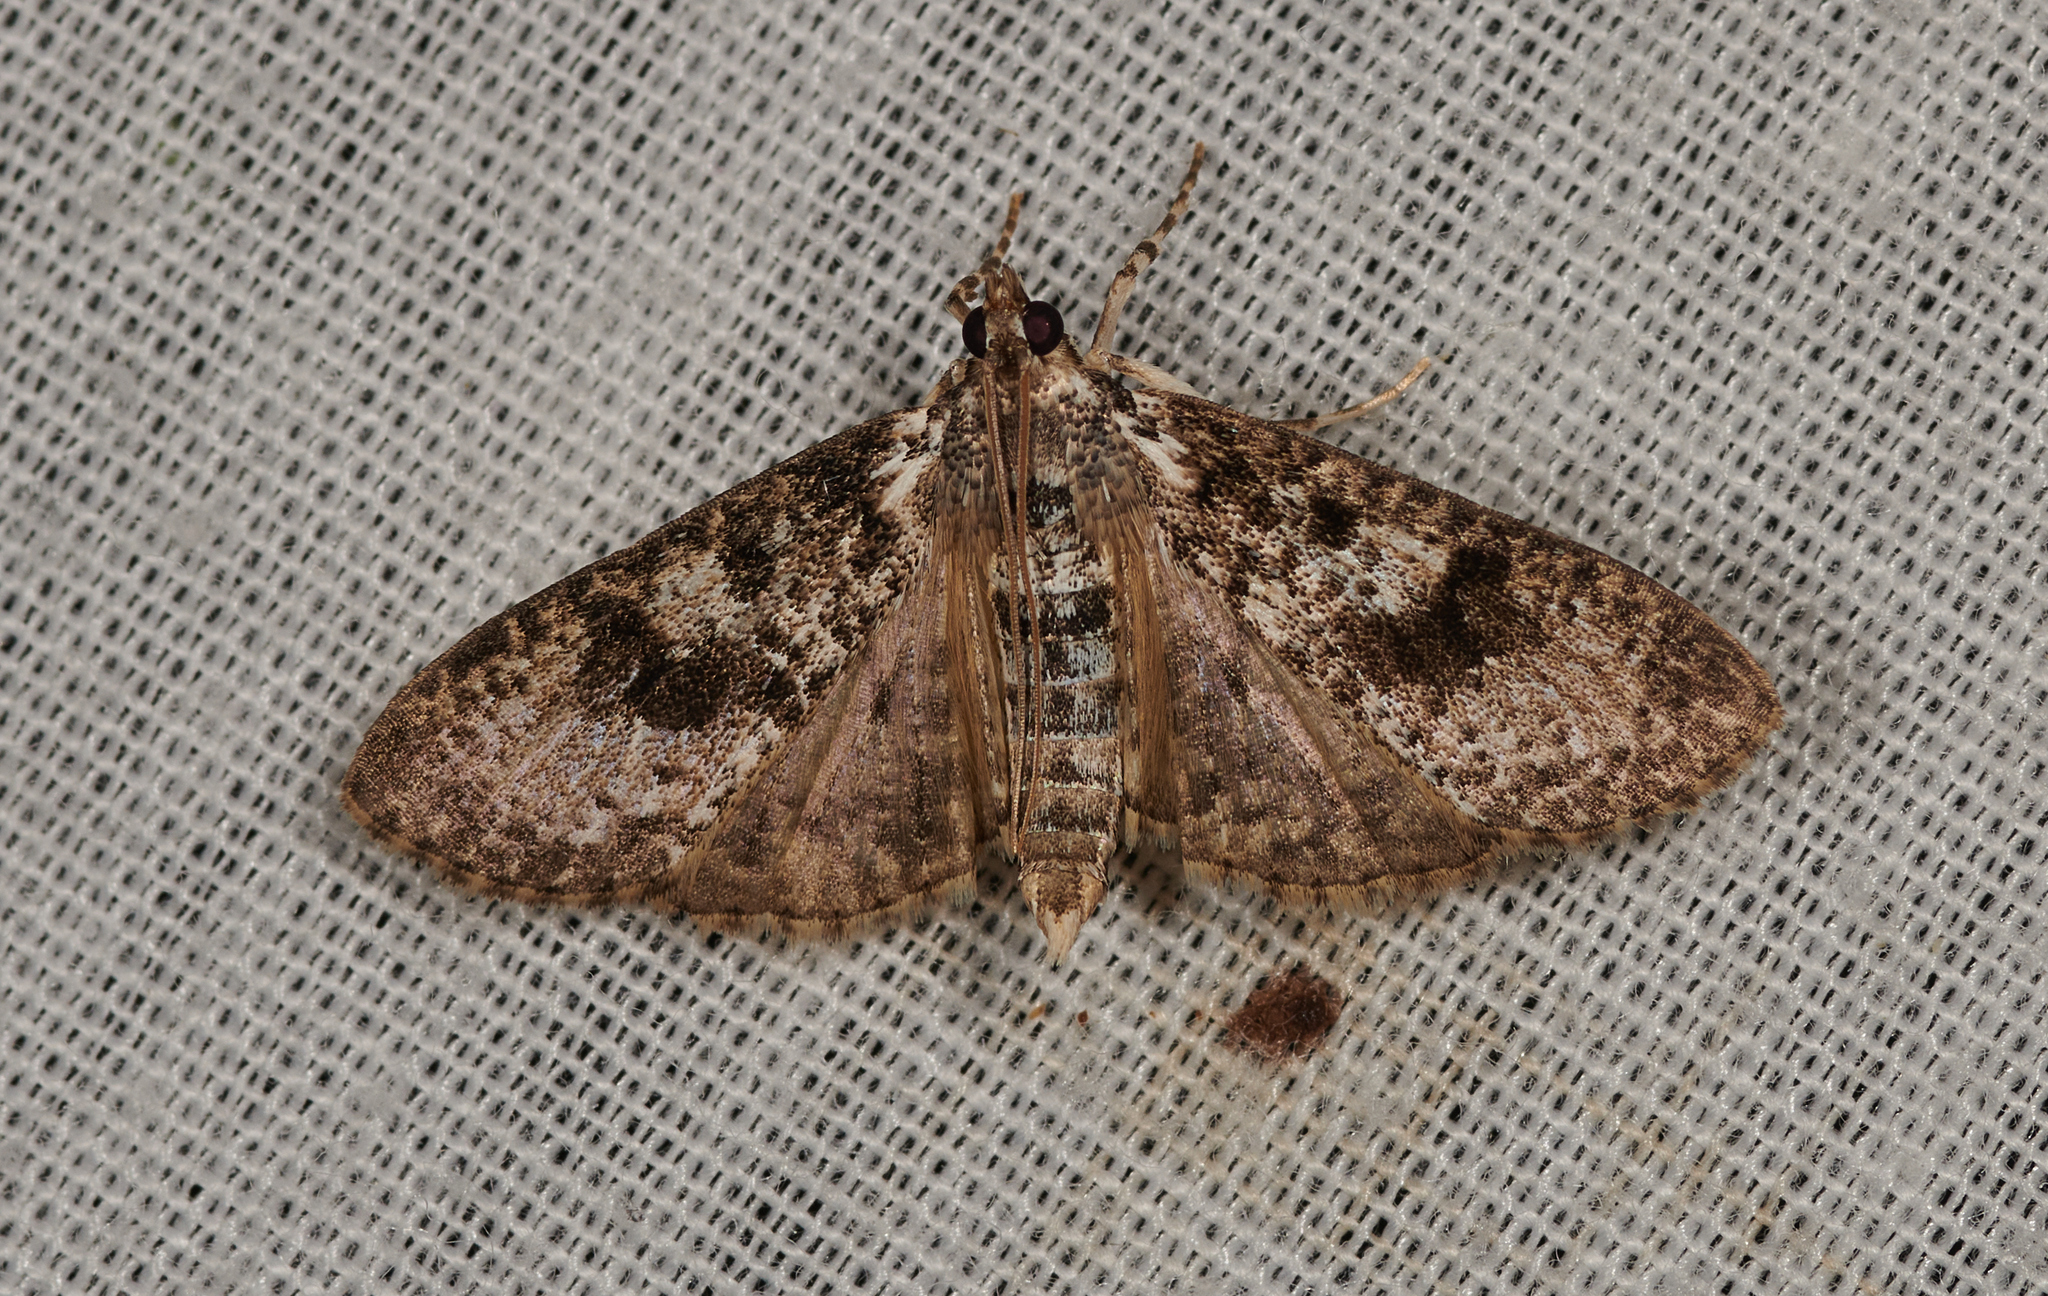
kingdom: Animalia
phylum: Arthropoda
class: Insecta
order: Lepidoptera
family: Crambidae
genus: Palpita
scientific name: Palpita magniferalis
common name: Splendid palpita moth
